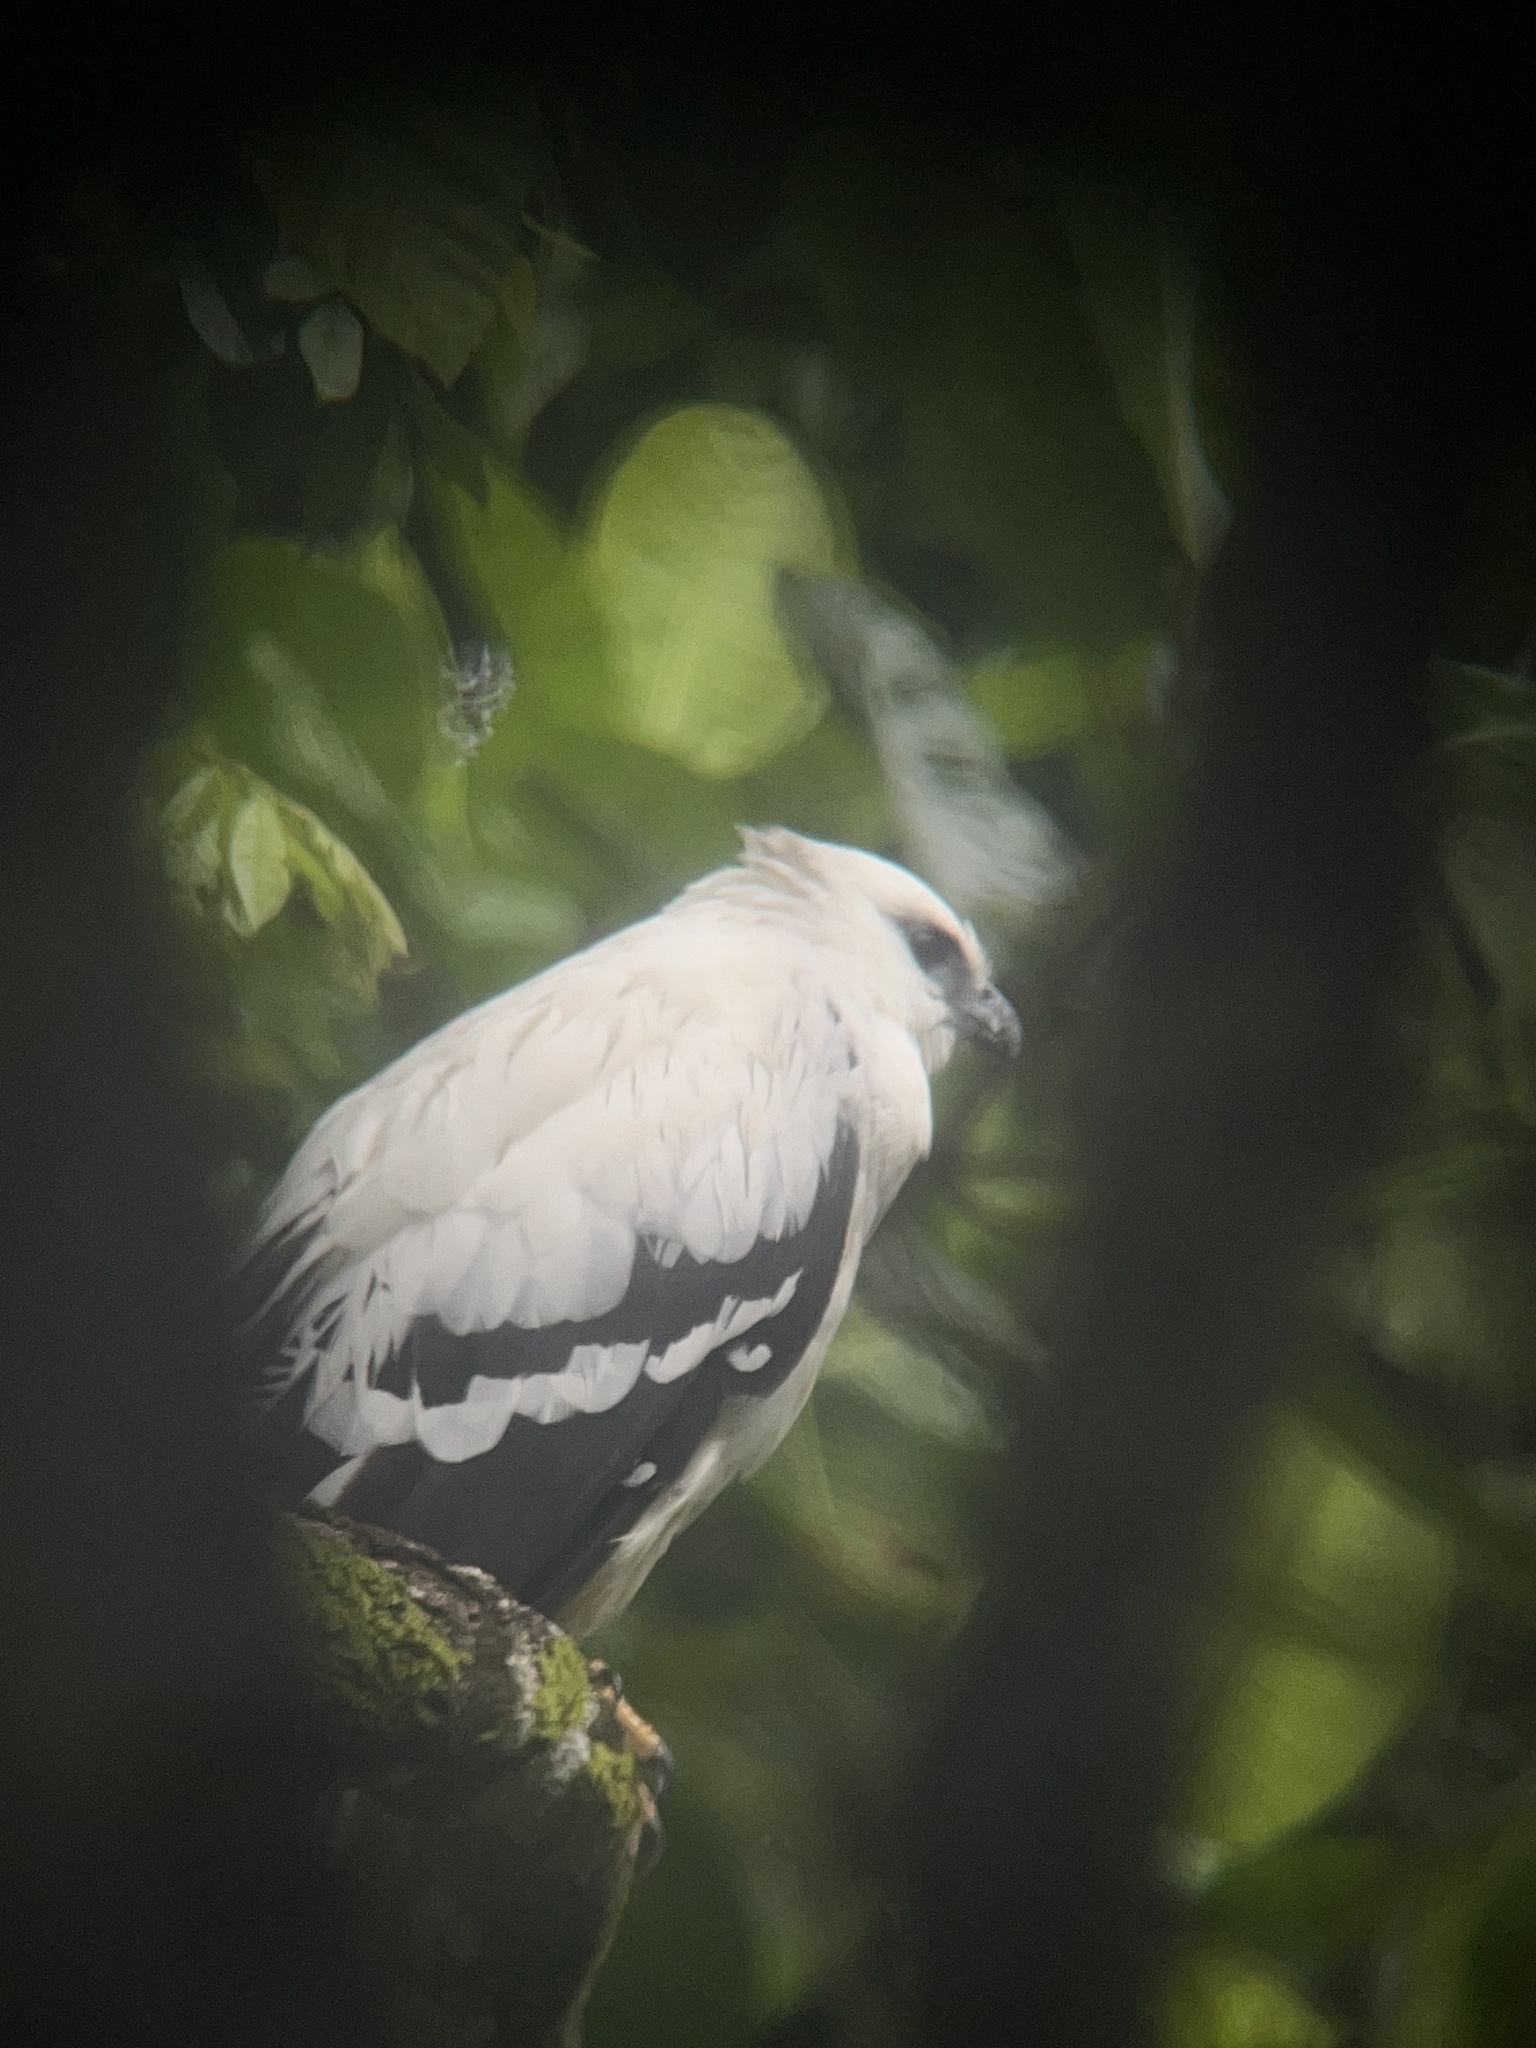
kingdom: Animalia
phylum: Chordata
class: Aves
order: Accipitriformes
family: Accipitridae
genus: Leucopternis
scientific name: Leucopternis albicollis
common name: White hawk
